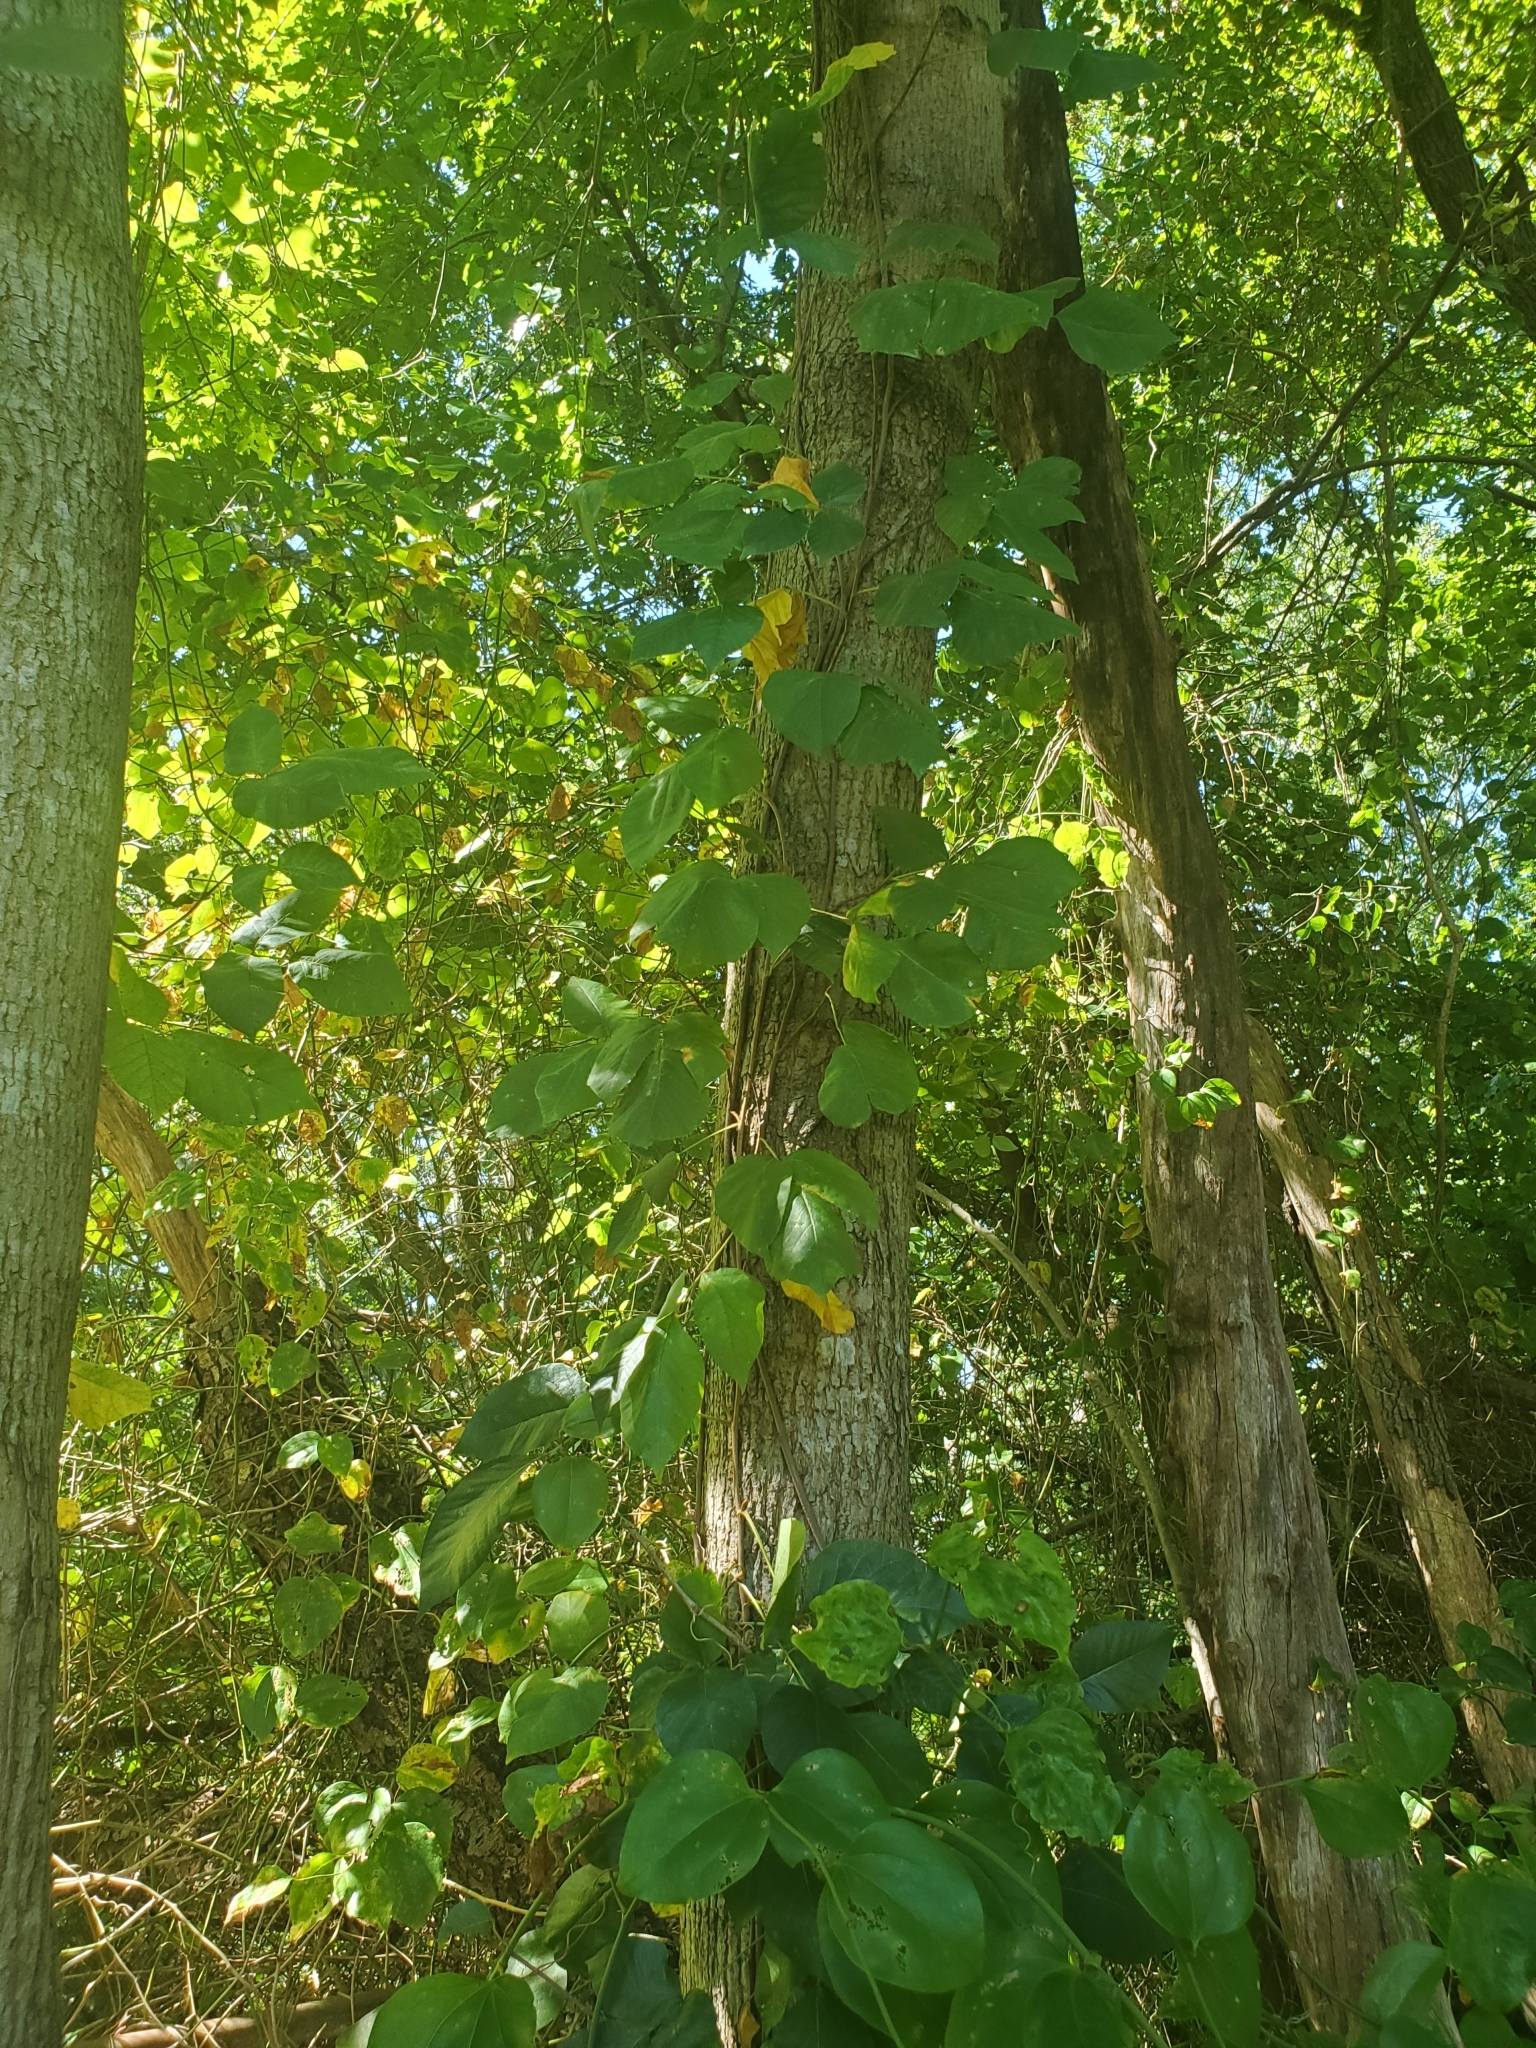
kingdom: Plantae
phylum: Tracheophyta
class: Magnoliopsida
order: Sapindales
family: Anacardiaceae
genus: Toxicodendron
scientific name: Toxicodendron radicans
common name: Poison ivy
